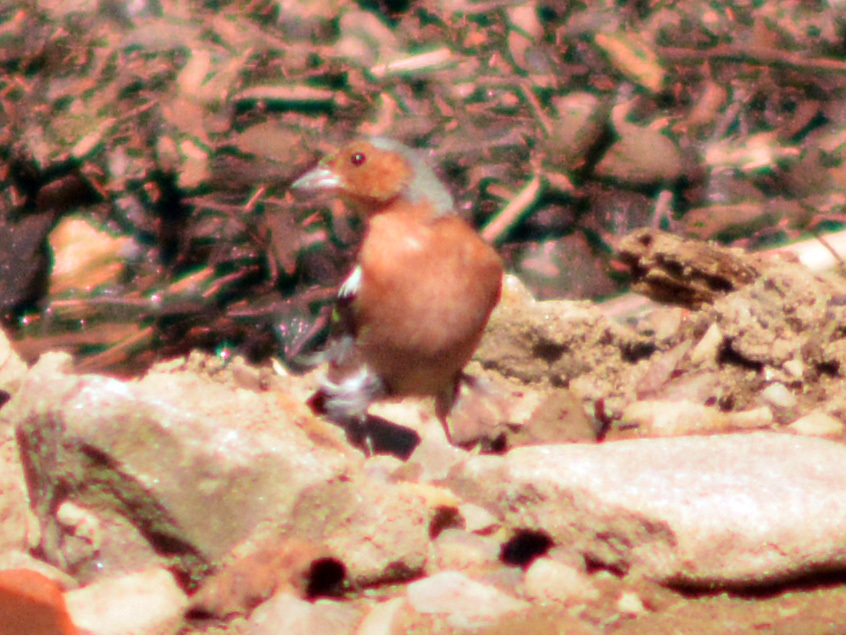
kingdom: Animalia
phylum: Chordata
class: Aves
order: Passeriformes
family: Fringillidae
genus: Fringilla
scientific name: Fringilla coelebs
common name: Common chaffinch
